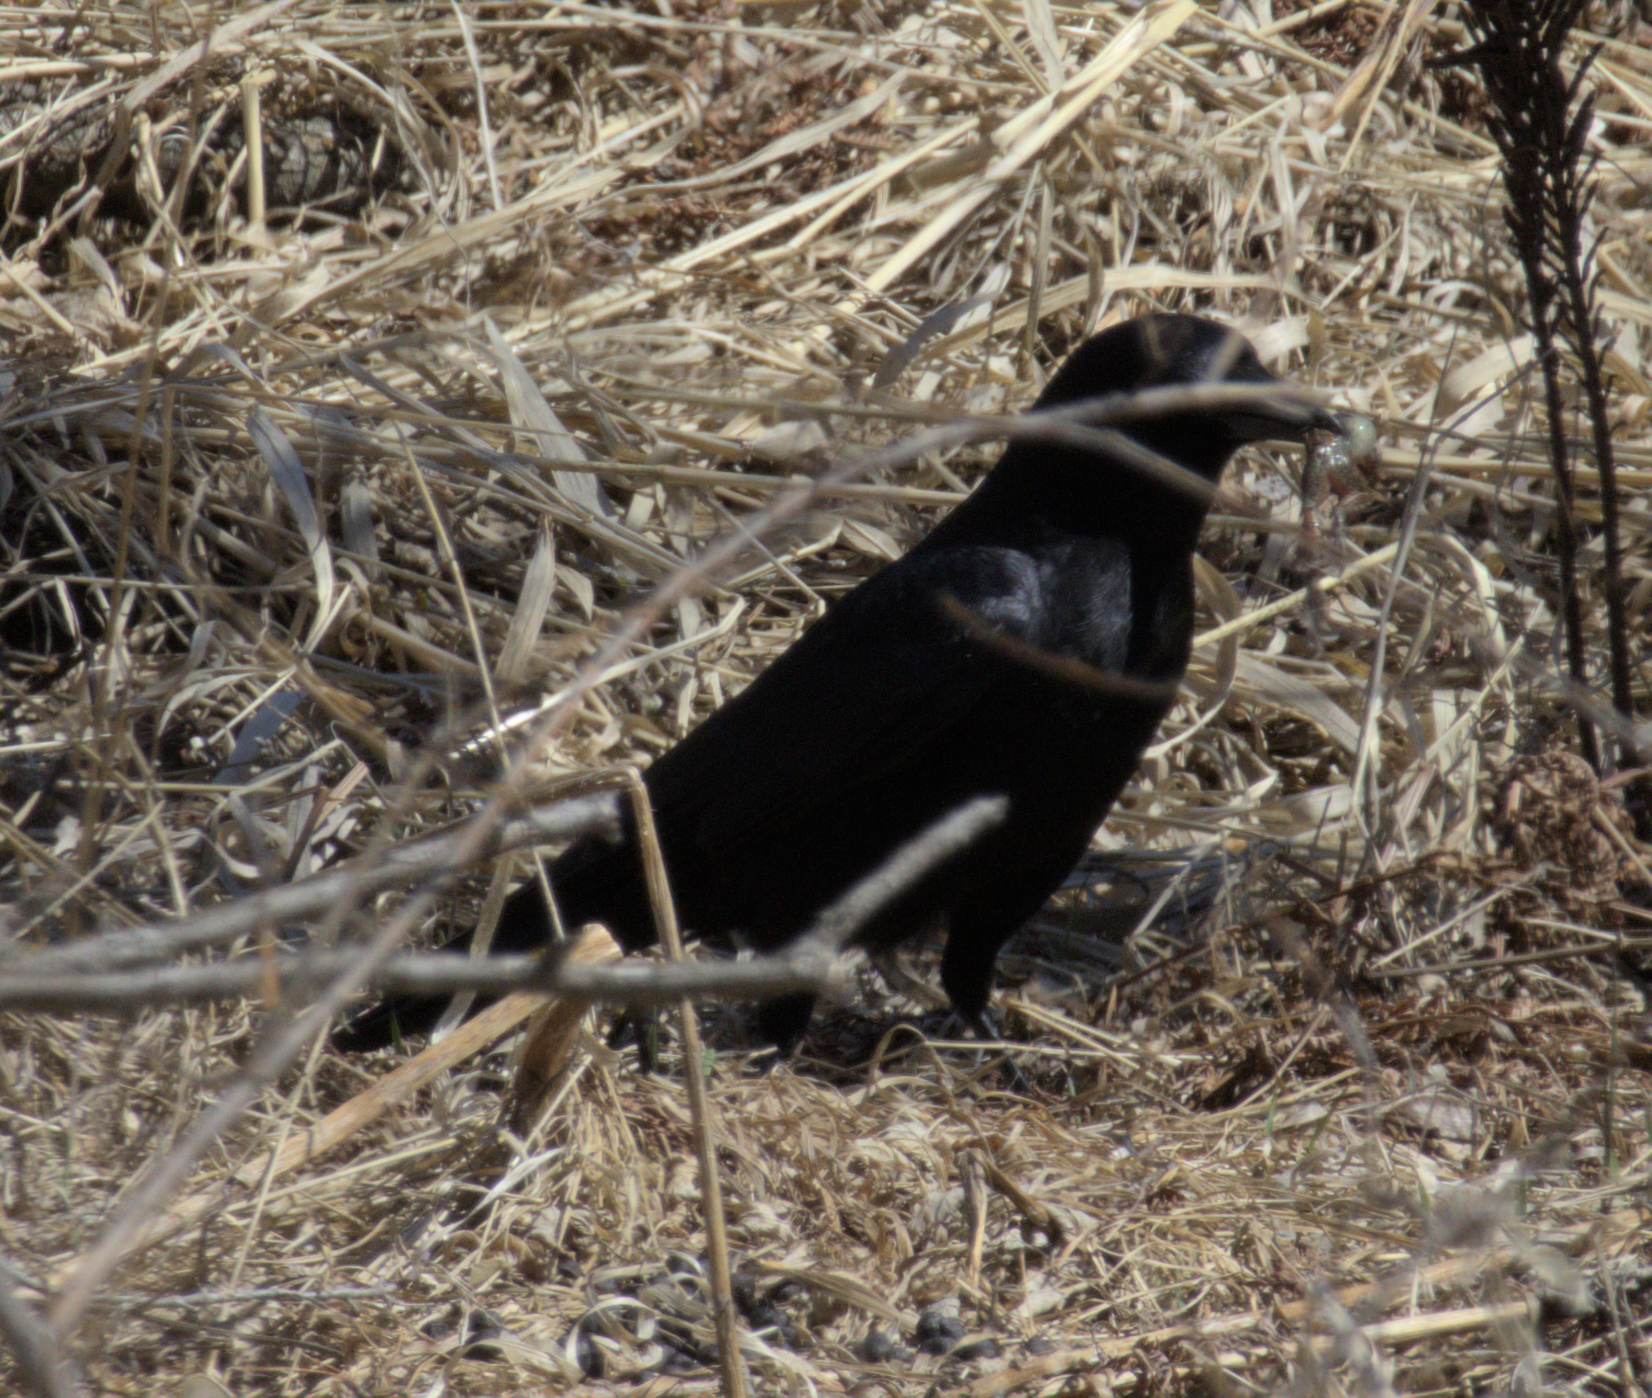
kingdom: Animalia
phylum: Chordata
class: Aves
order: Passeriformes
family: Corvidae
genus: Corvus
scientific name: Corvus brachyrhynchos
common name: American crow
